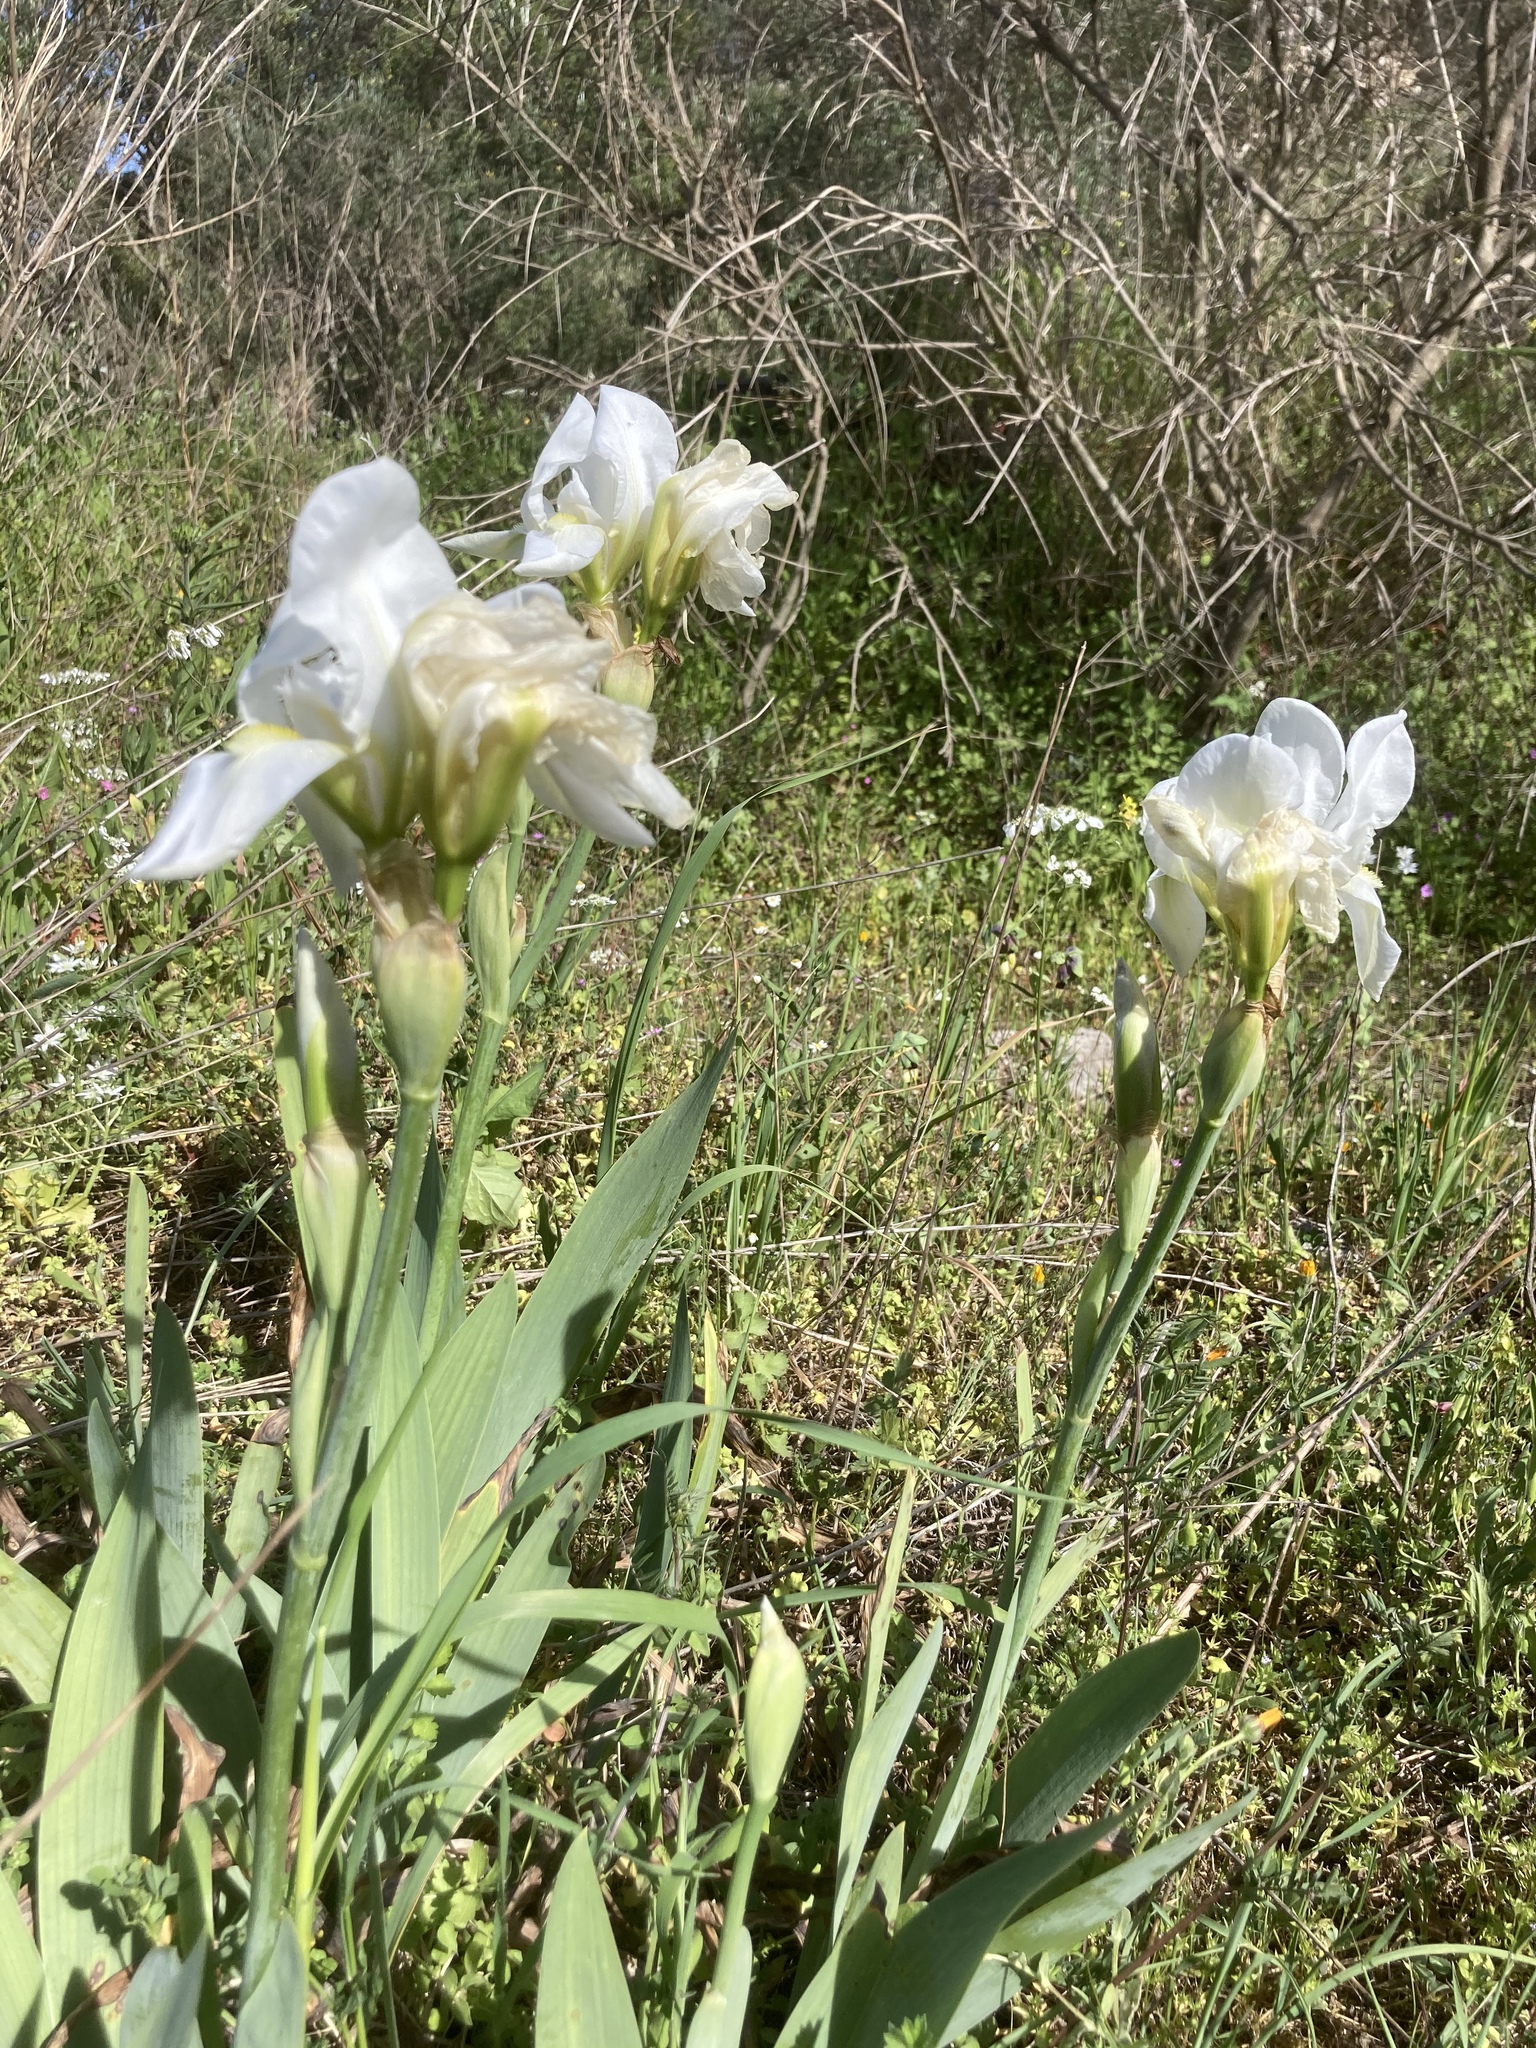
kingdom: Plantae
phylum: Tracheophyta
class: Liliopsida
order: Asparagales
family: Iridaceae
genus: Iris
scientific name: Iris florentina
